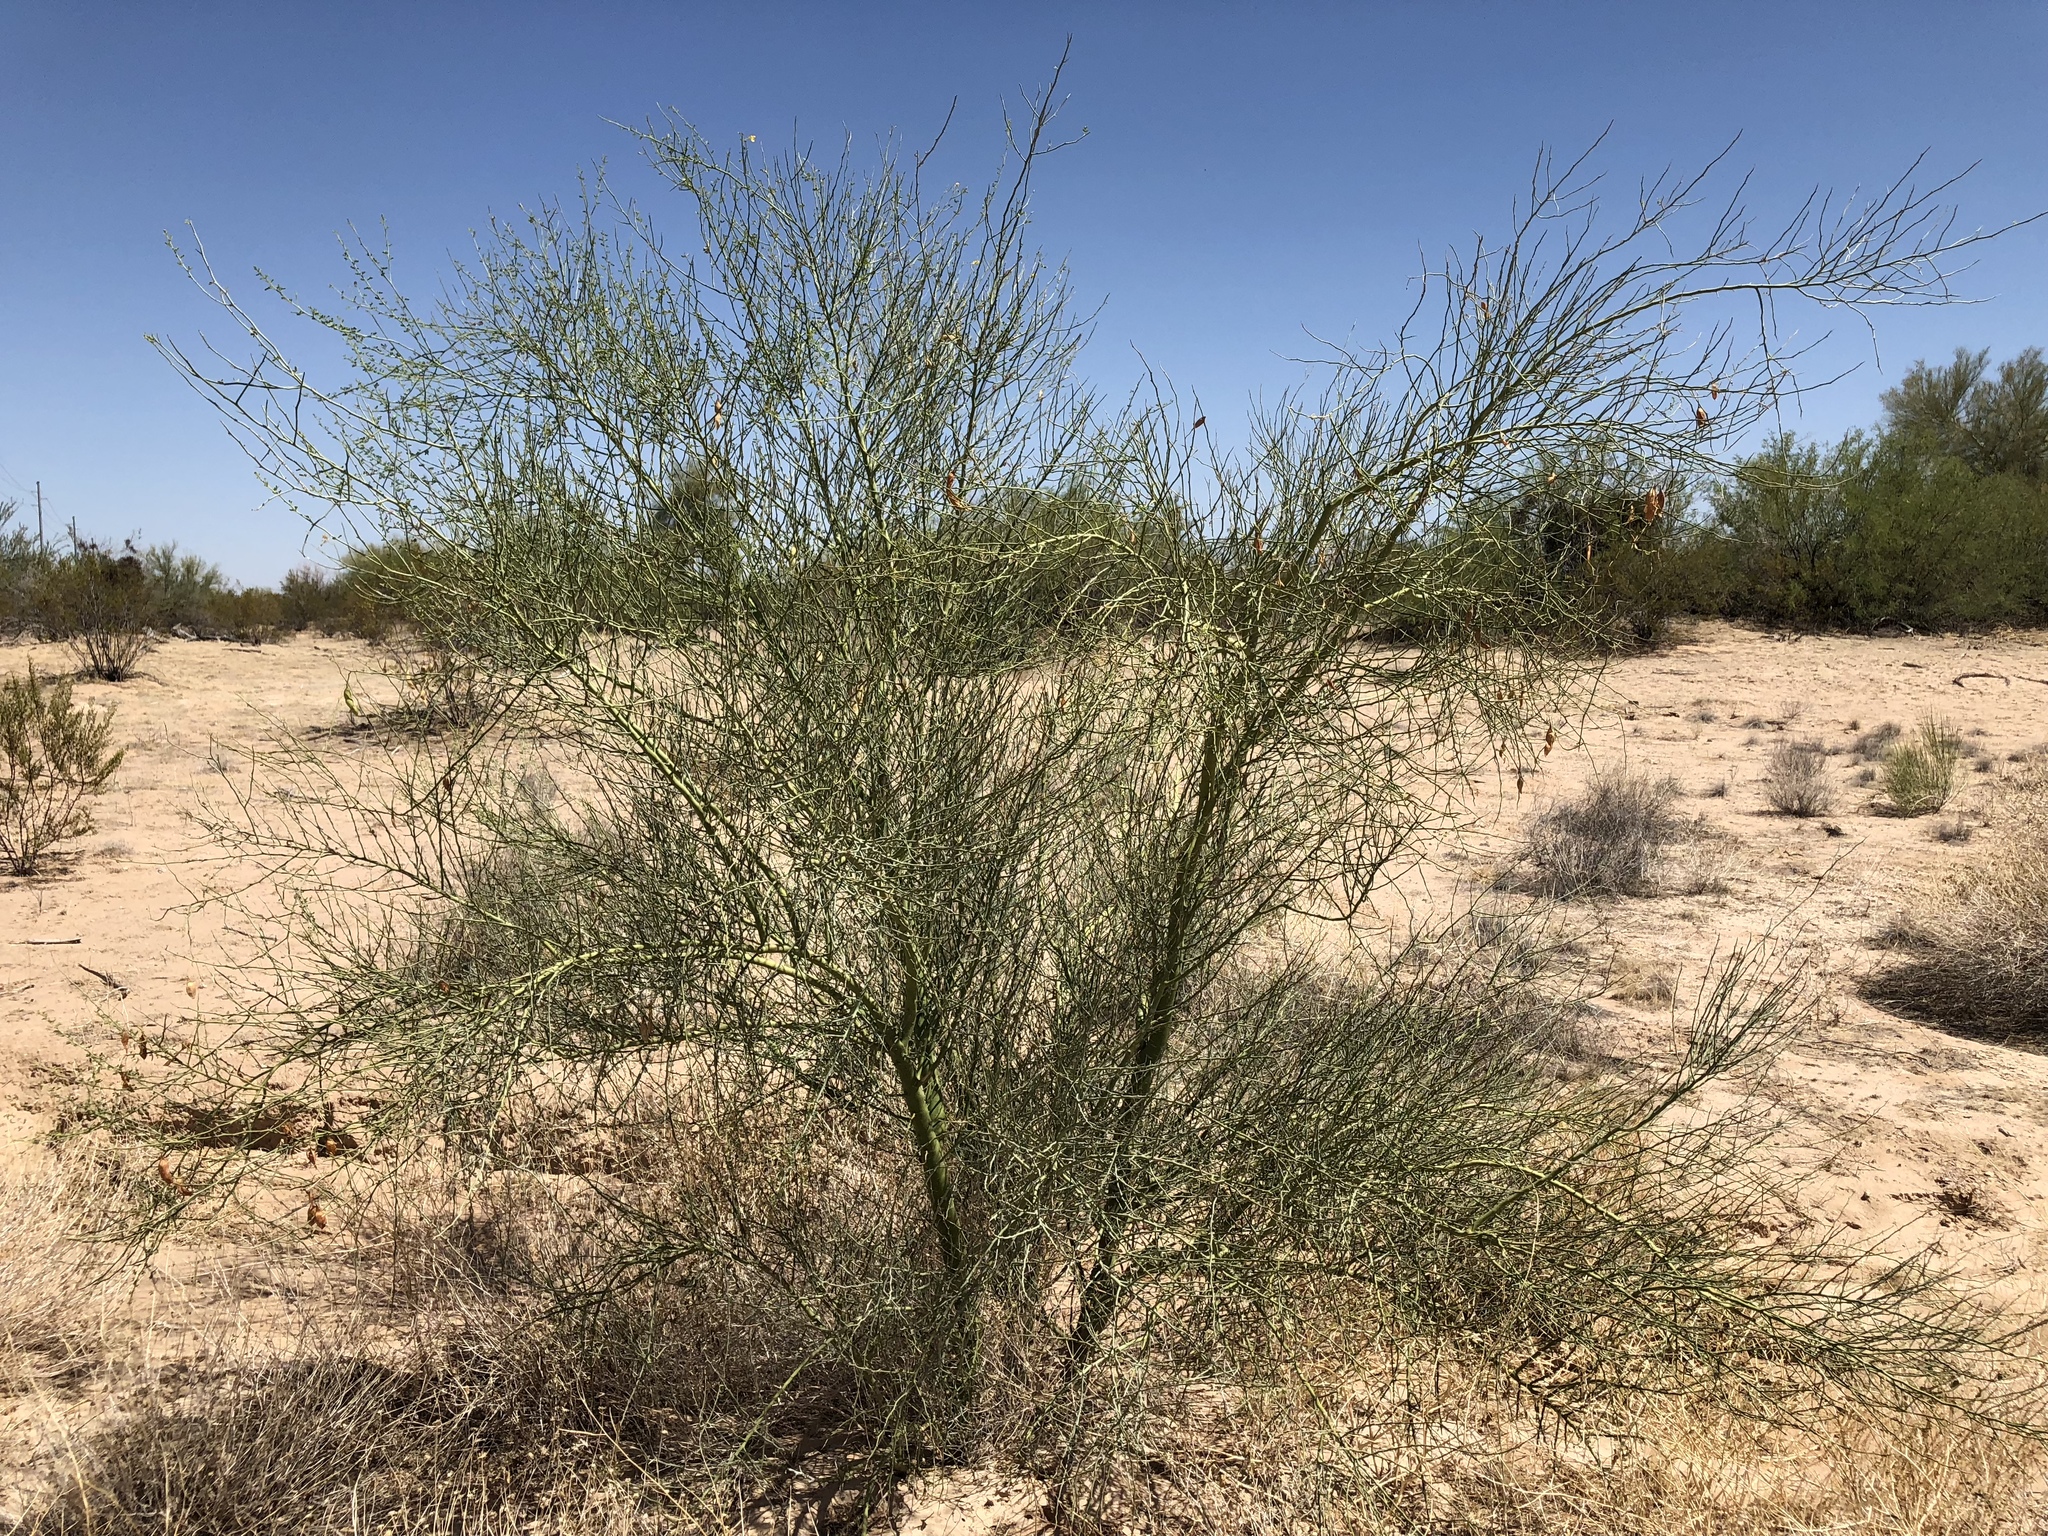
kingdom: Plantae
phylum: Tracheophyta
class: Magnoliopsida
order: Fabales
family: Fabaceae
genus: Parkinsonia
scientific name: Parkinsonia microphylla
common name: Yellow paloverde
